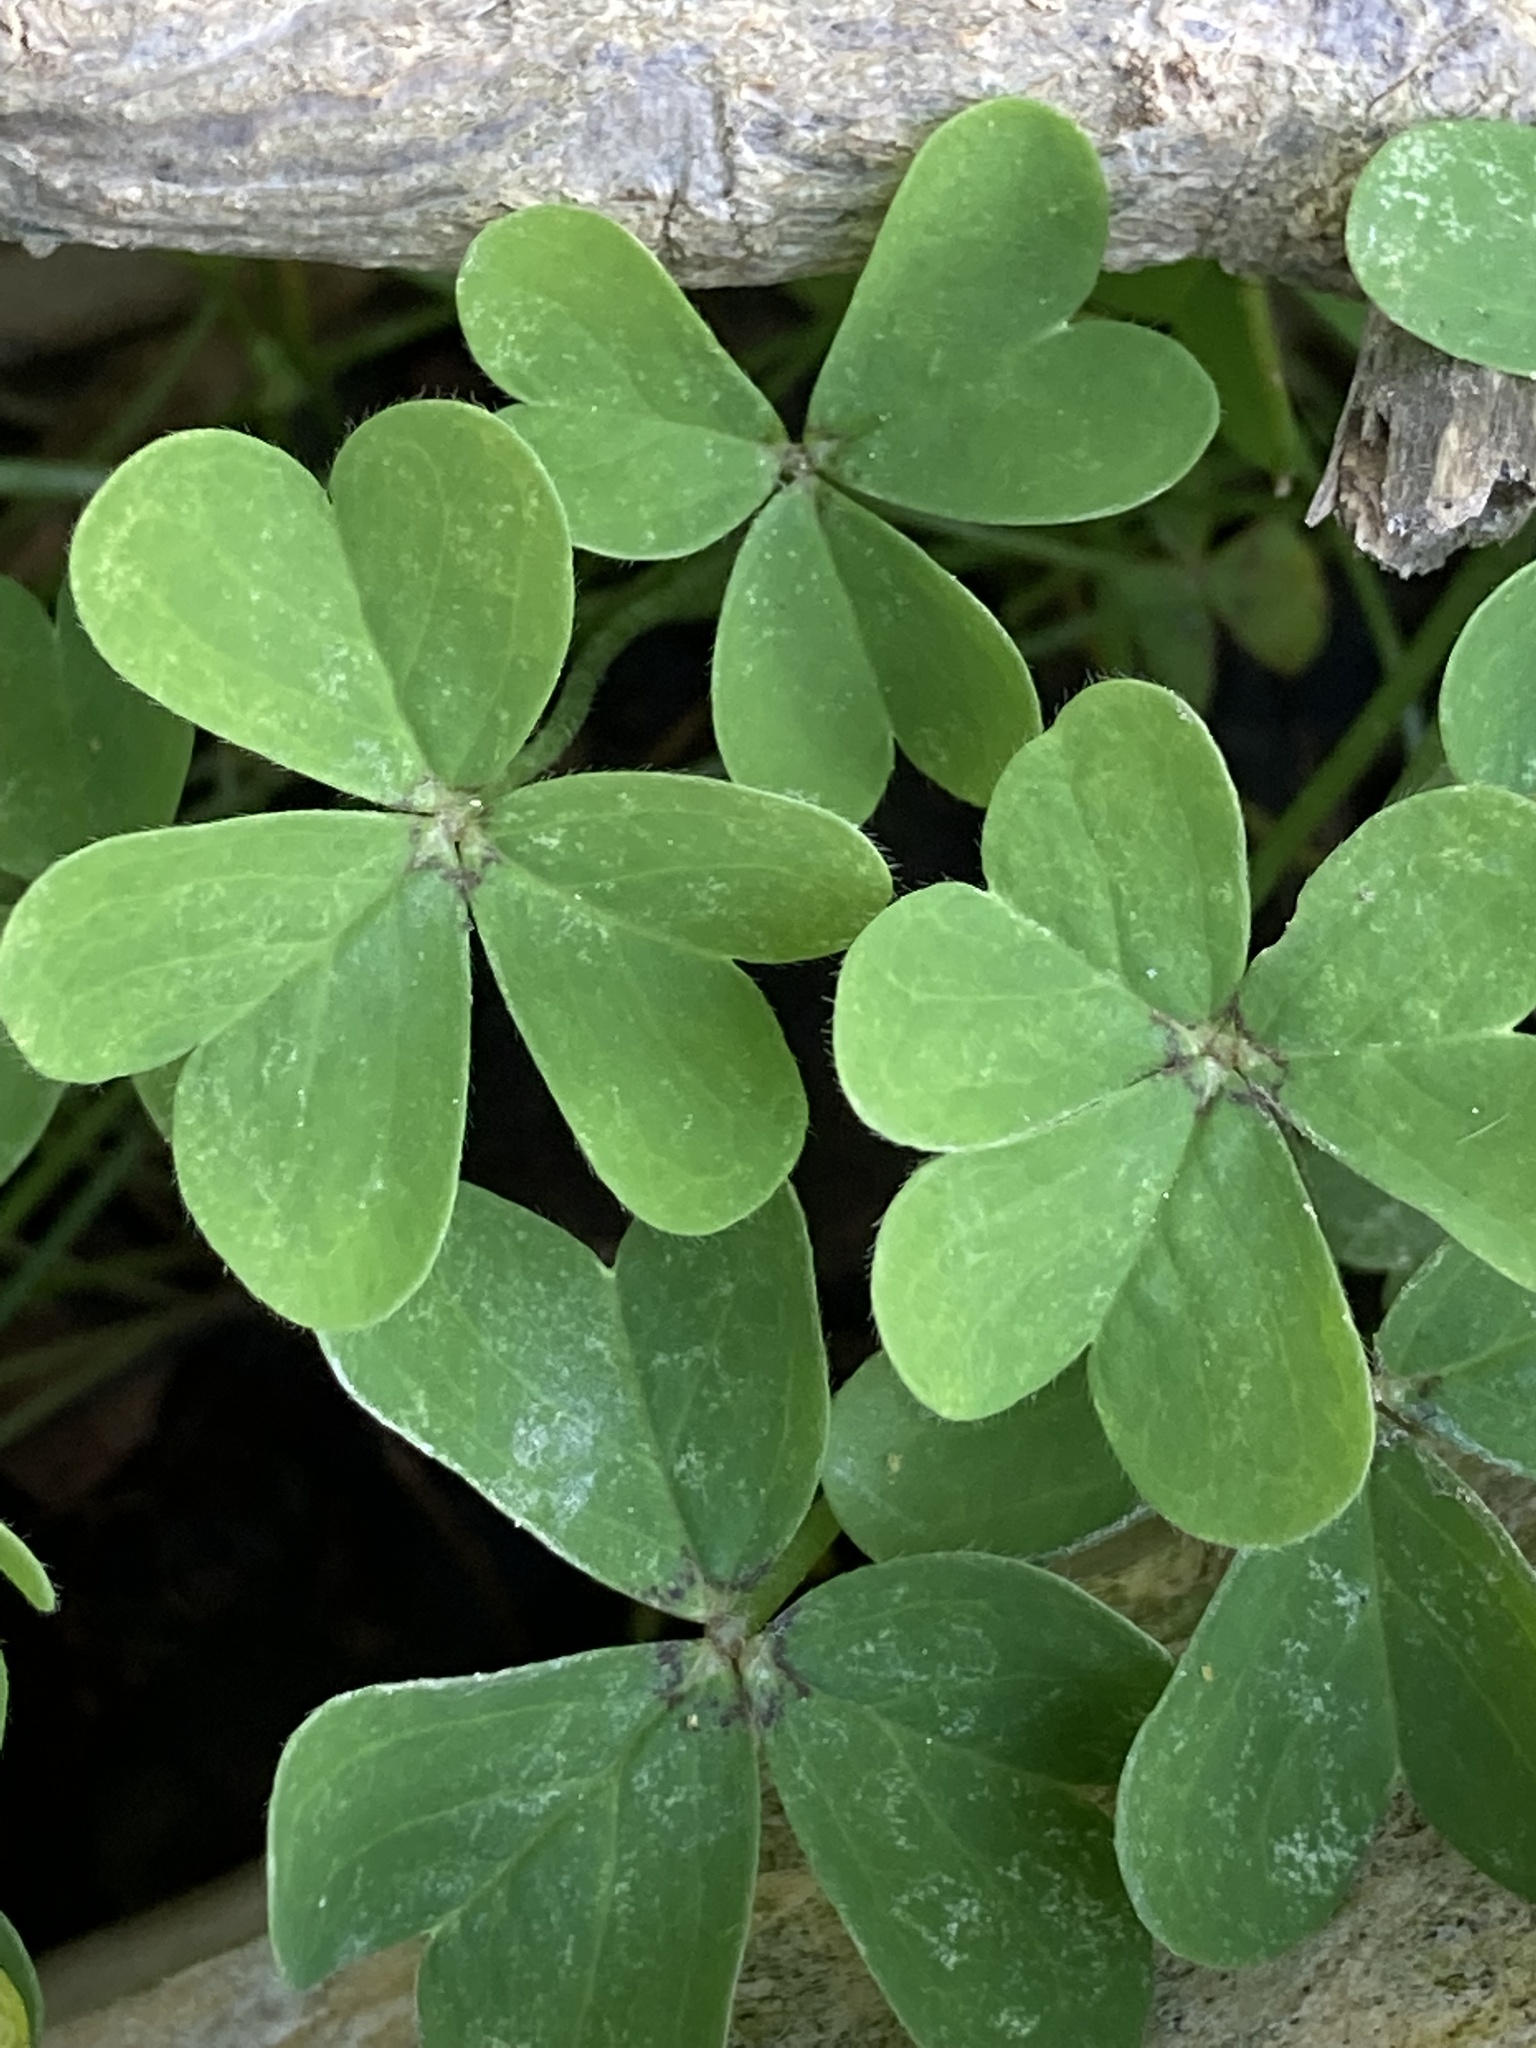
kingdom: Plantae
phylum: Tracheophyta
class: Magnoliopsida
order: Oxalidales
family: Oxalidaceae
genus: Oxalis
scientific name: Oxalis pes-caprae
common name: Bermuda-buttercup
